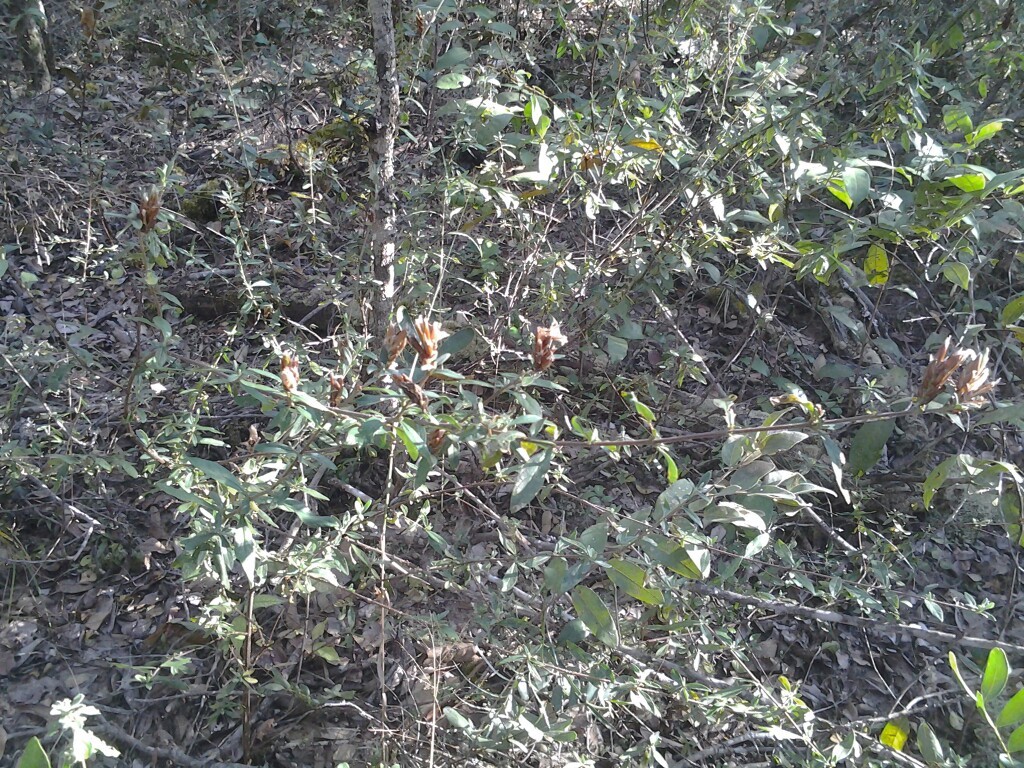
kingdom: Plantae
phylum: Tracheophyta
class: Magnoliopsida
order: Lamiales
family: Acanthaceae
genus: Lepidagathis
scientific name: Lepidagathis macrochila
